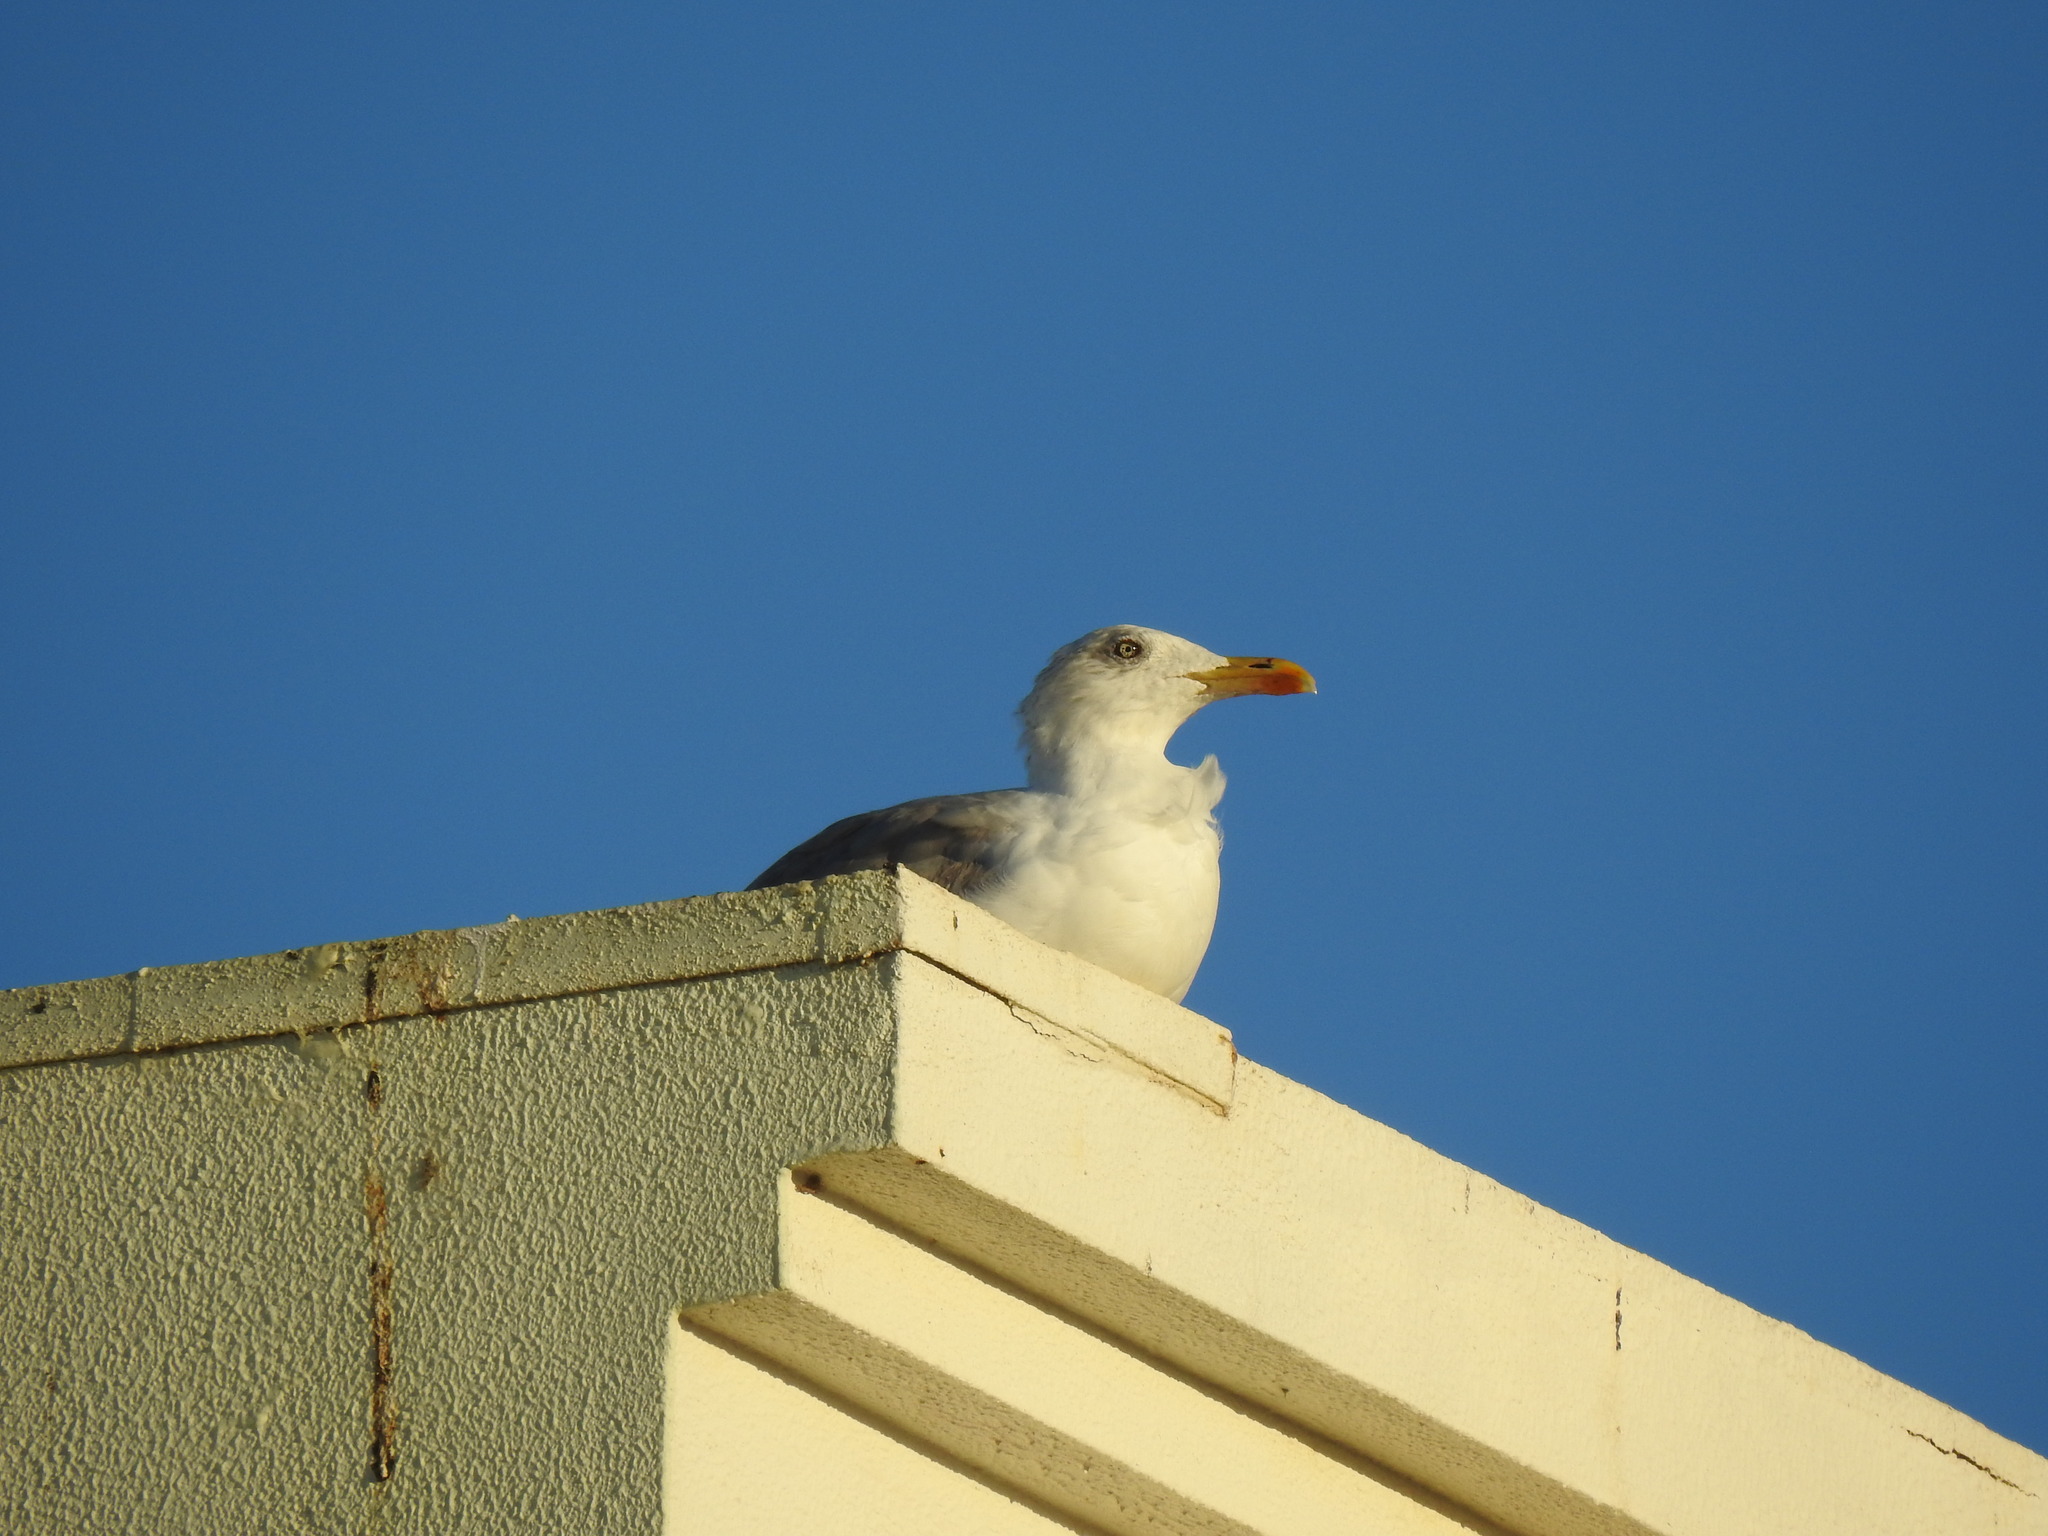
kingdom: Animalia
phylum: Chordata
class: Aves
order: Charadriiformes
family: Laridae
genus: Larus
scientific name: Larus michahellis
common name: Yellow-legged gull
